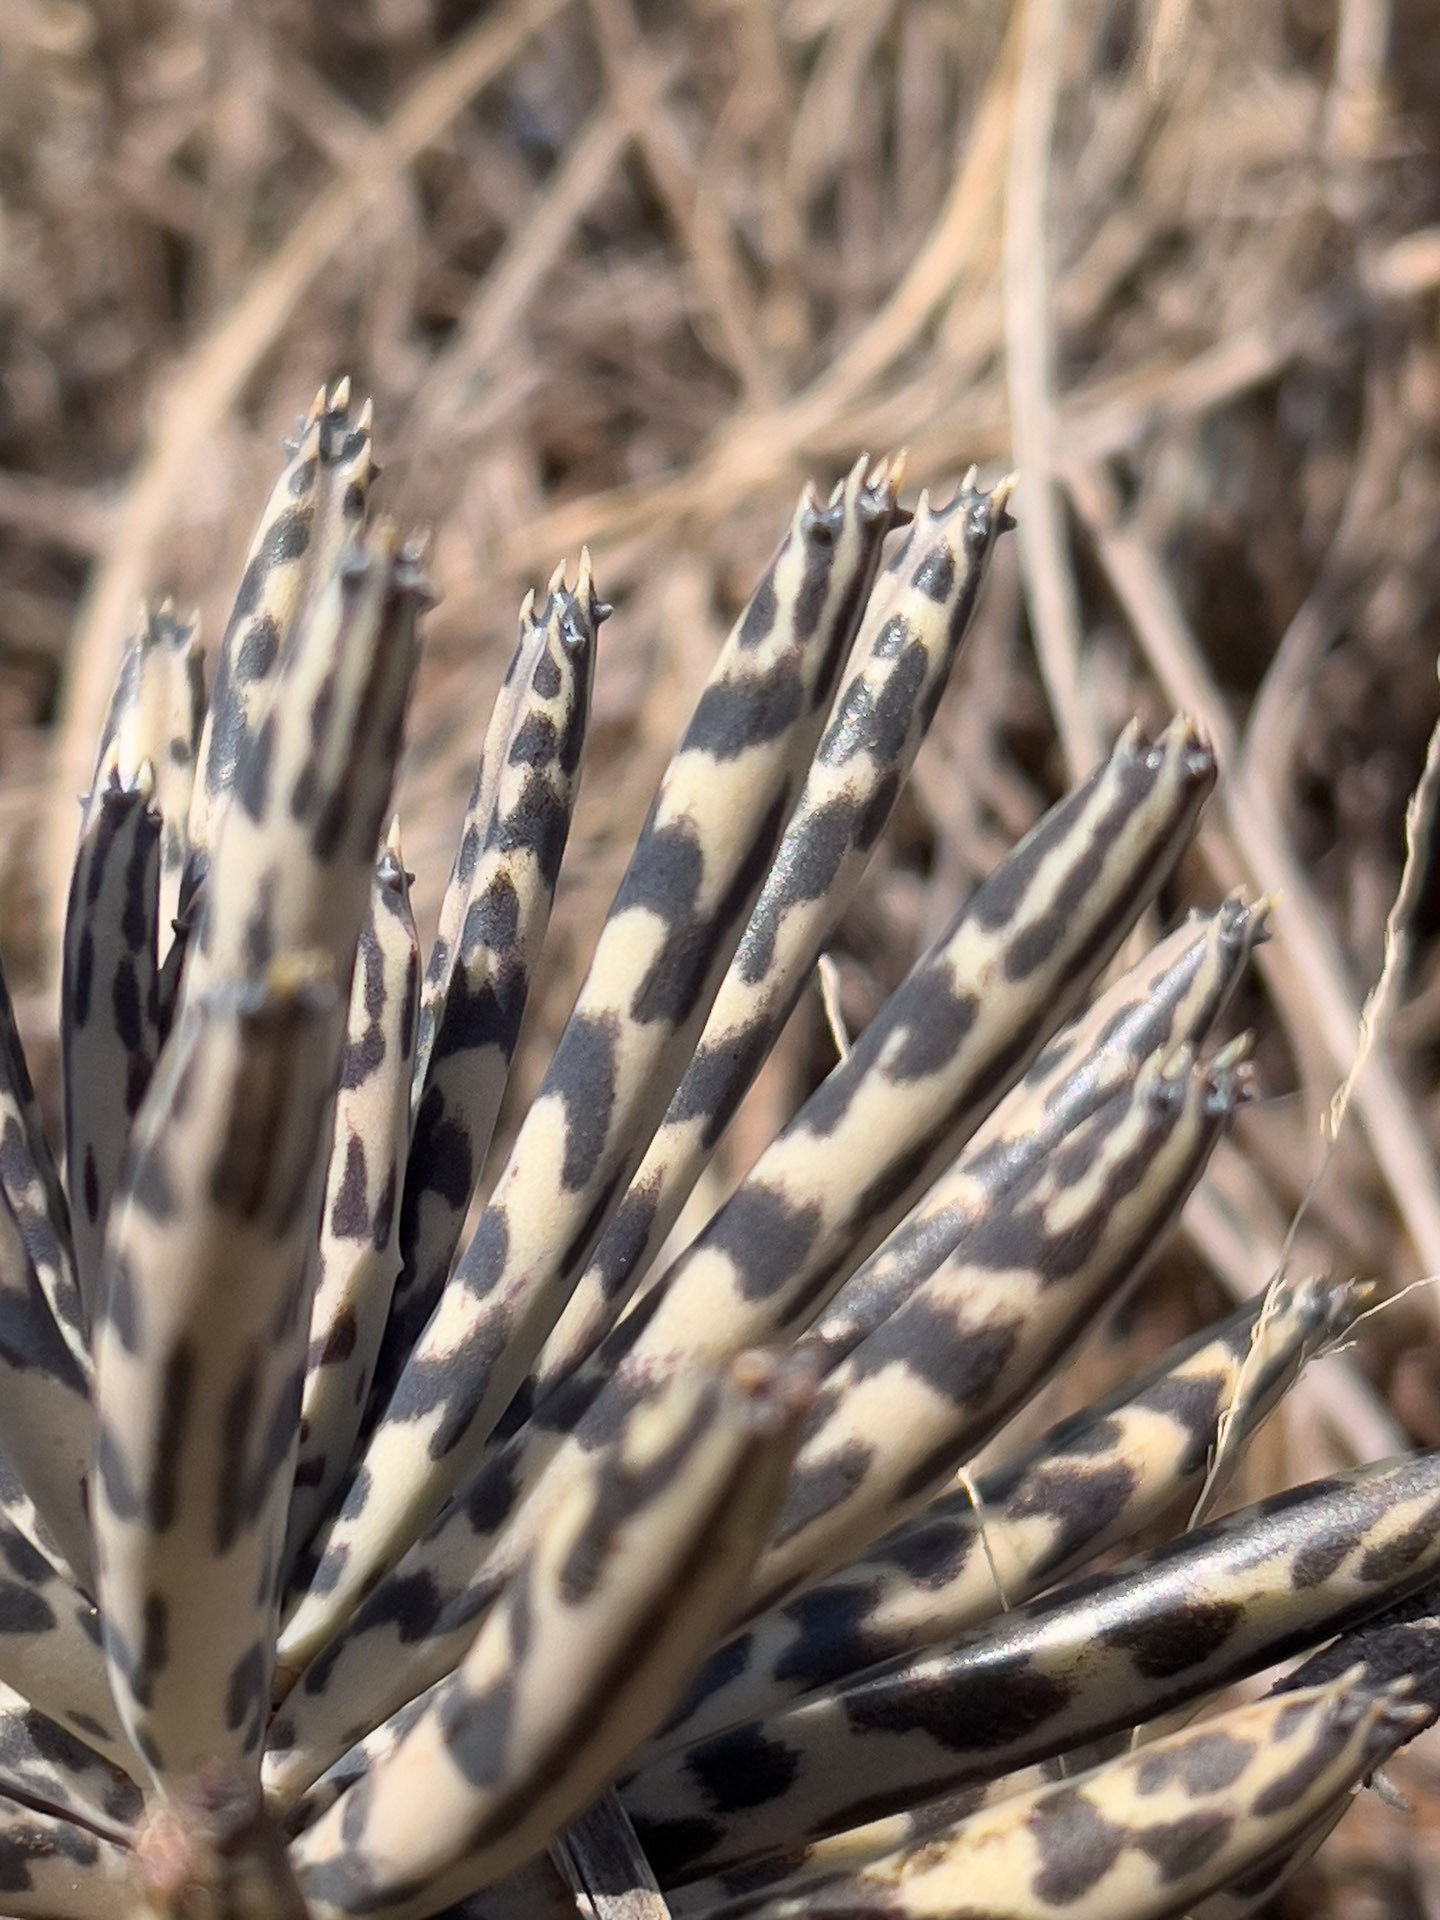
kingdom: Plantae
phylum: Tracheophyta
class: Magnoliopsida
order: Saxifragales
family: Crassulaceae
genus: Kalanchoe
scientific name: Kalanchoe delagoensis
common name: Chandelier plant
